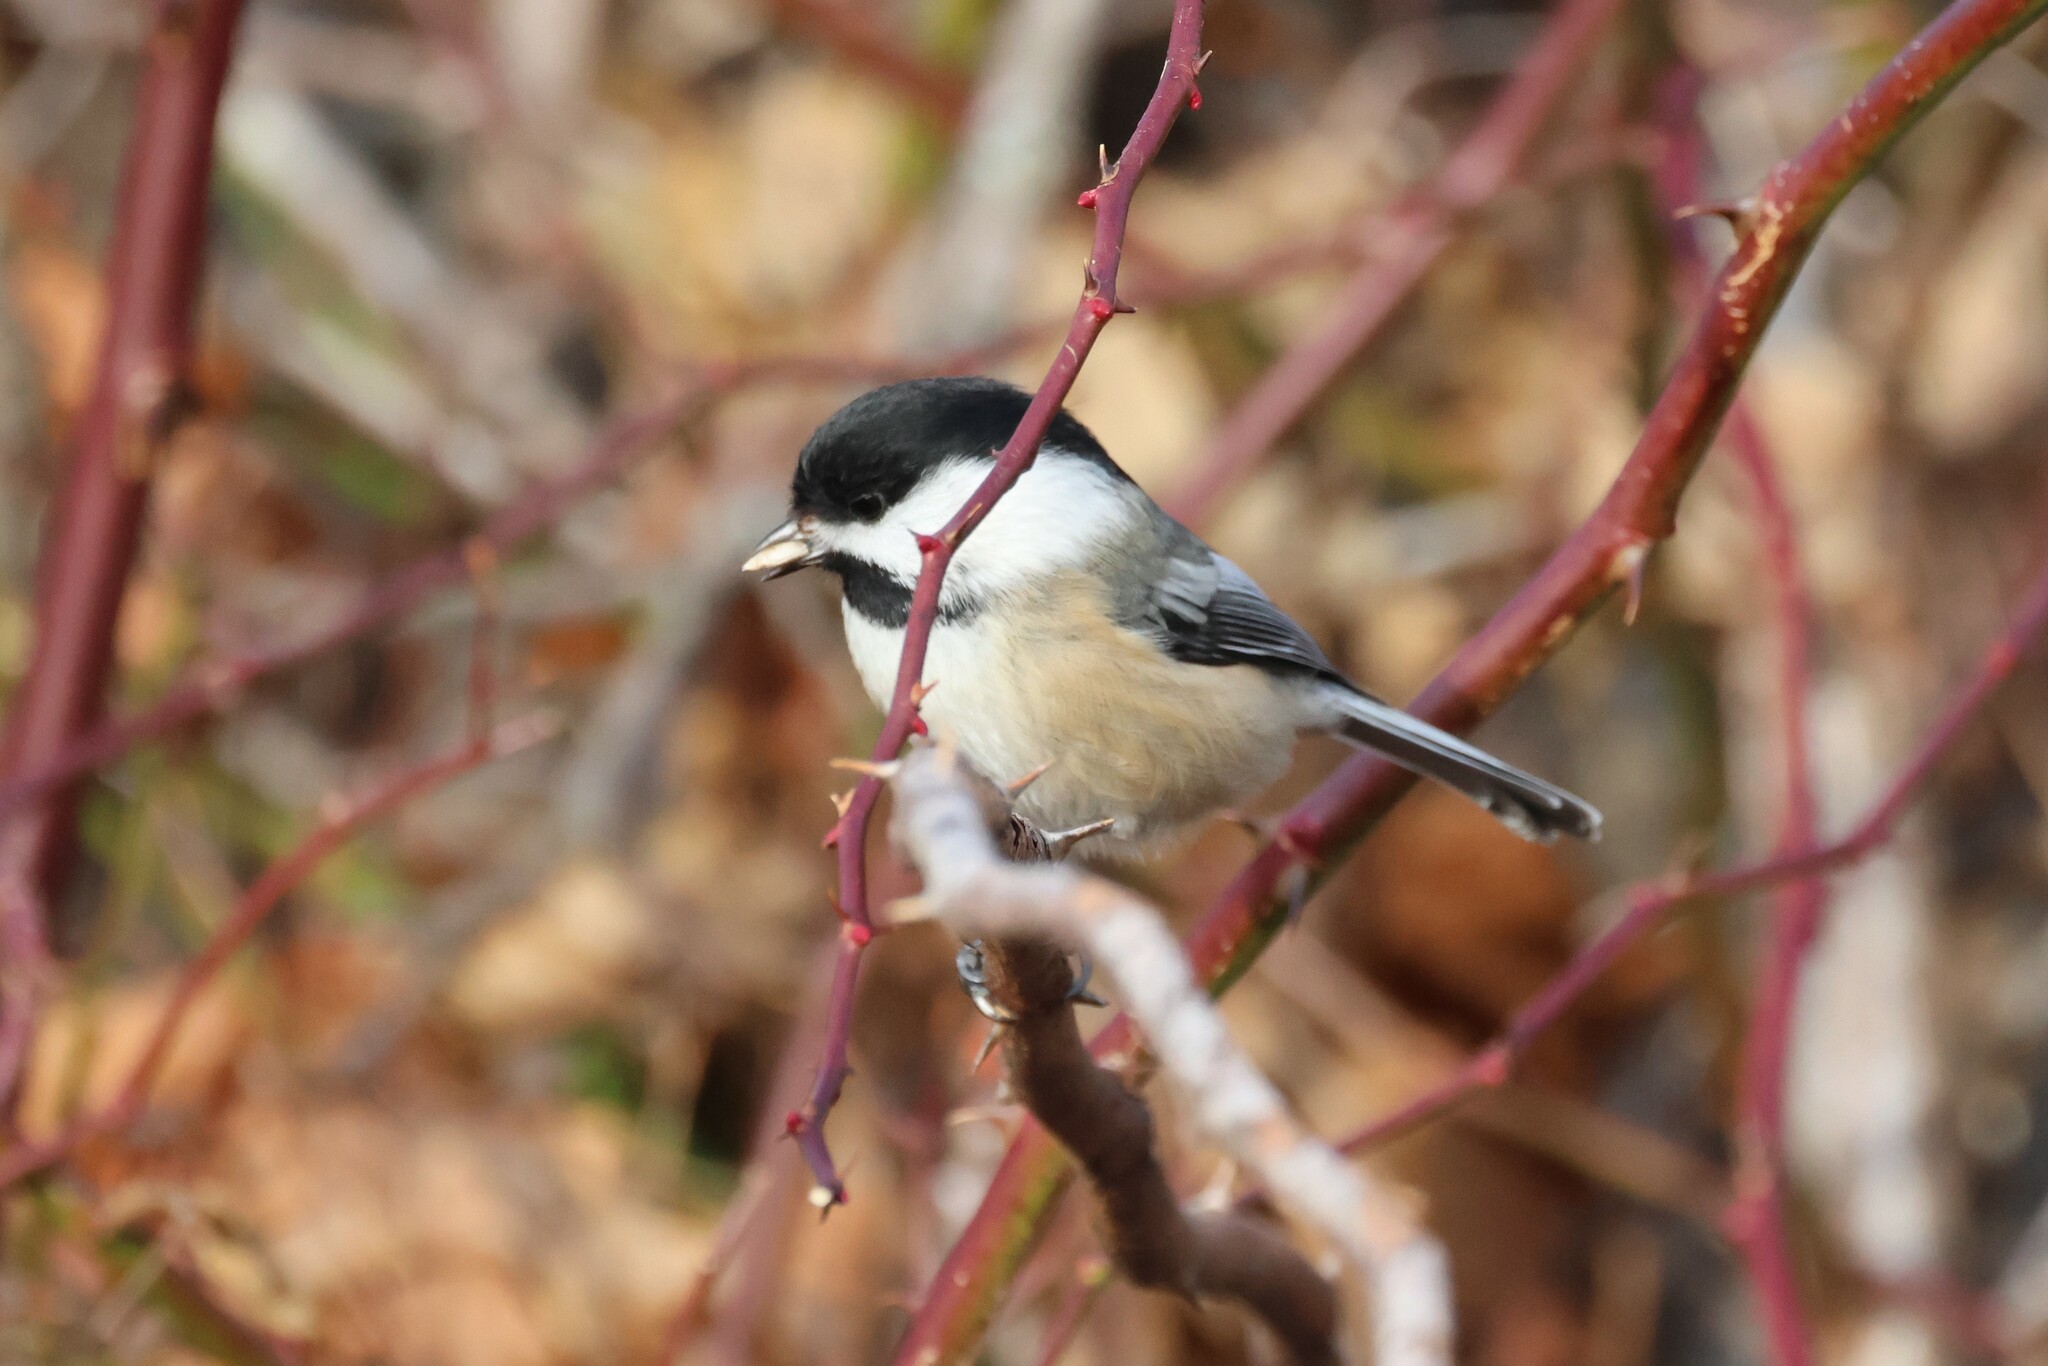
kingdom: Animalia
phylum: Chordata
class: Aves
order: Passeriformes
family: Paridae
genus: Poecile
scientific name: Poecile atricapillus
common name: Black-capped chickadee
